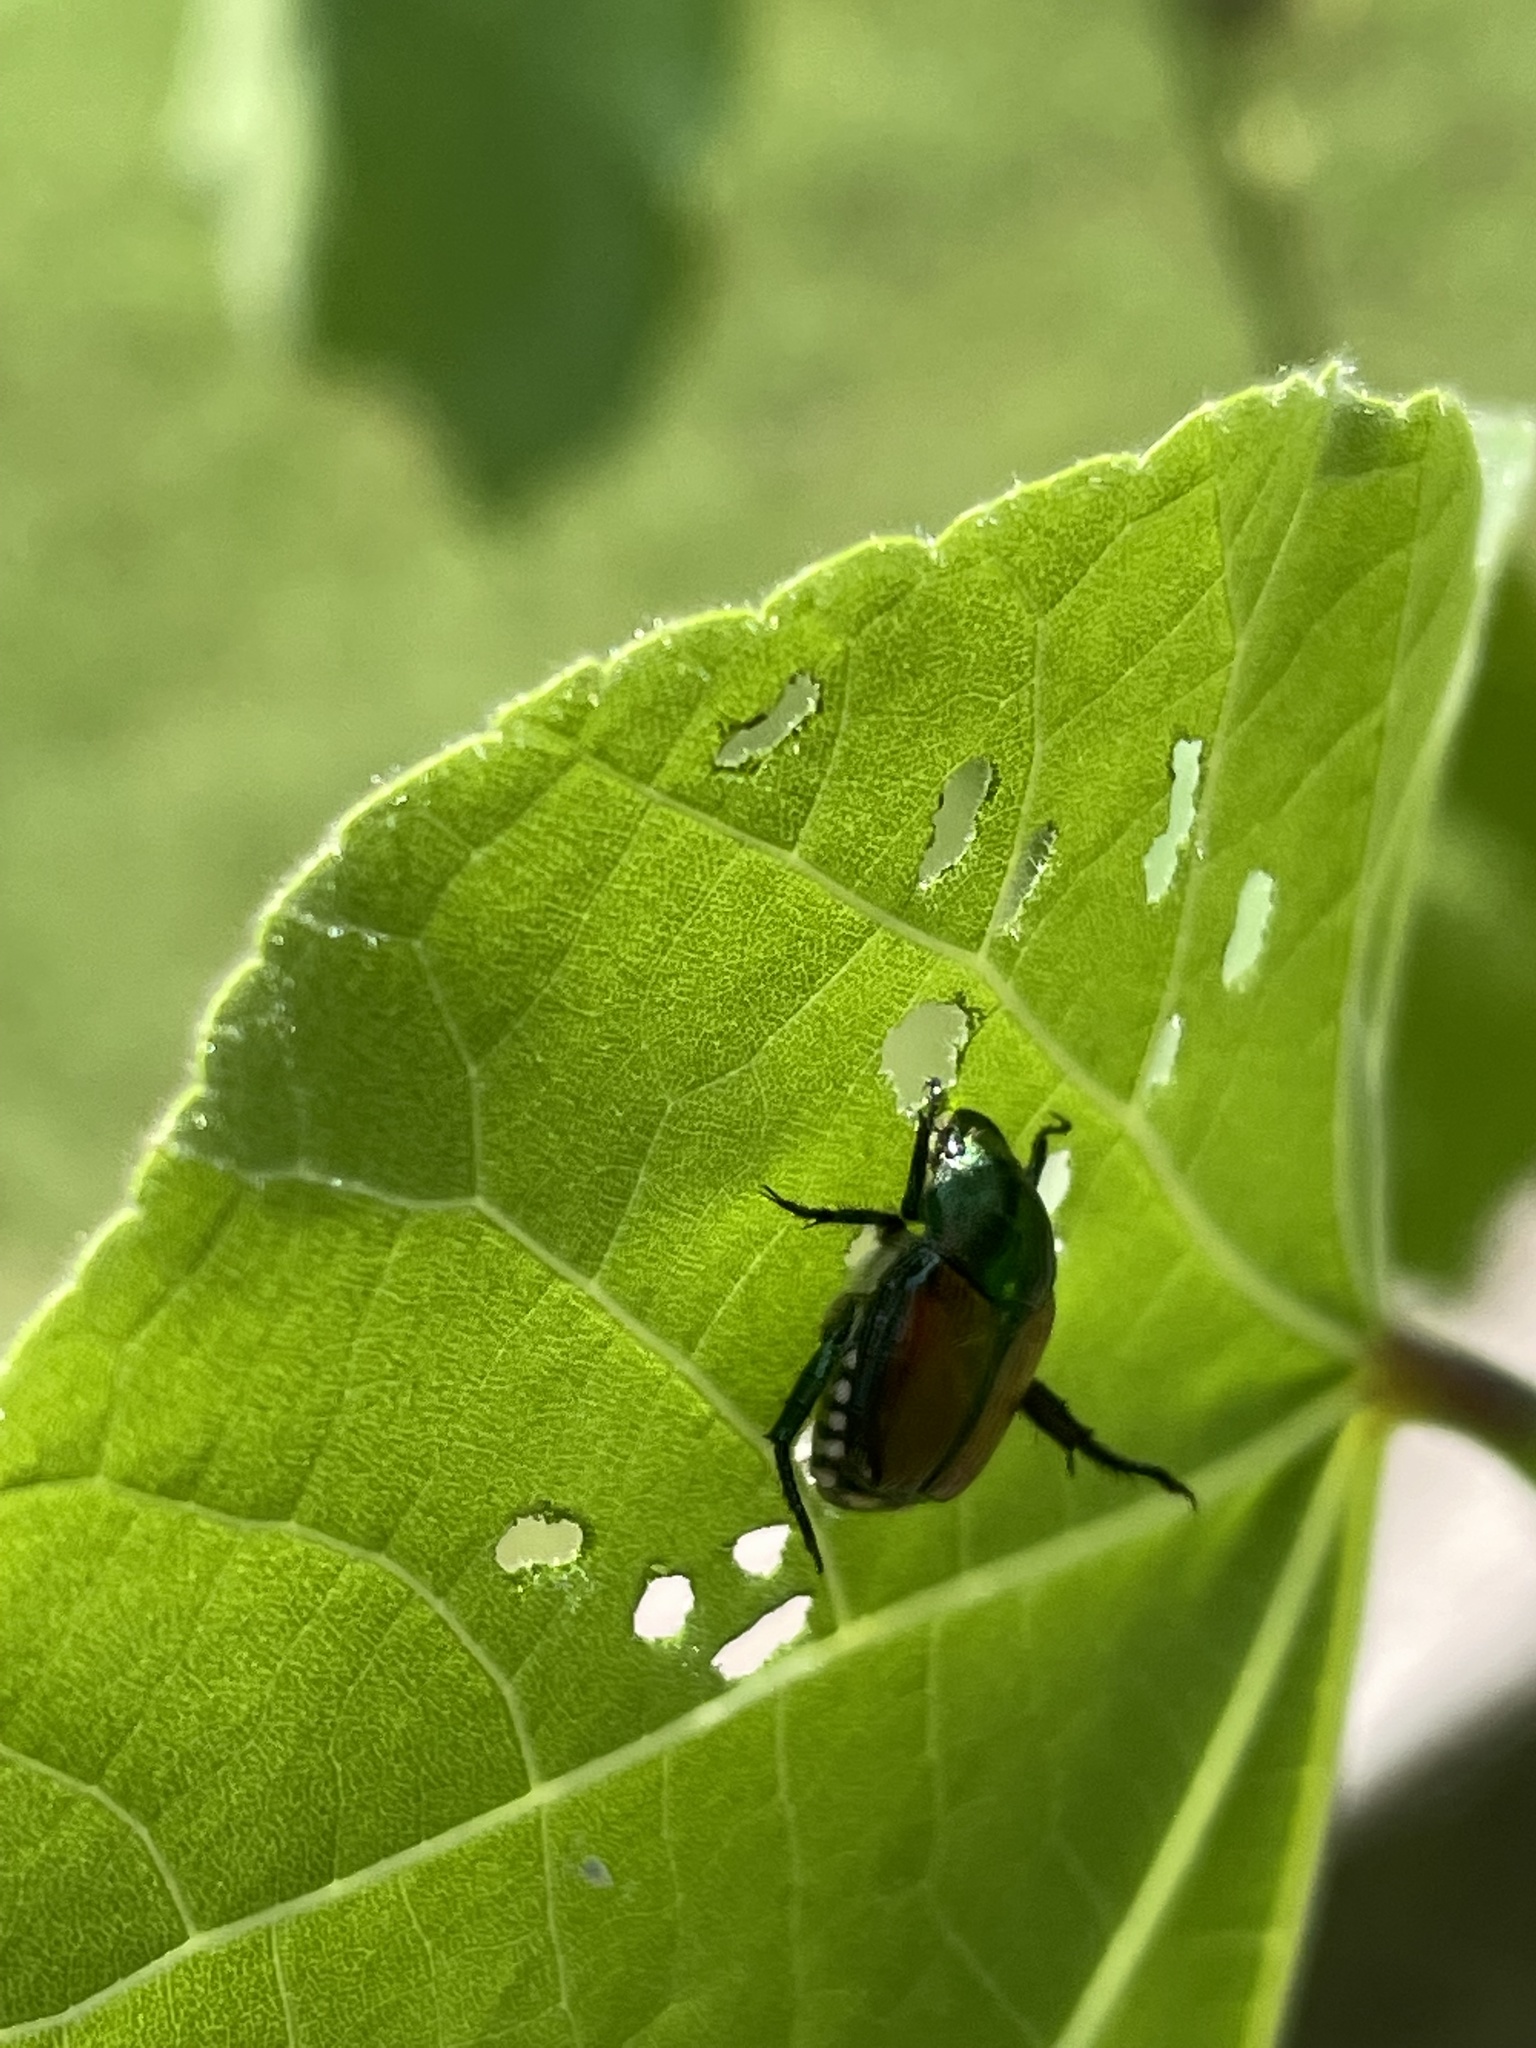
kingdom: Animalia
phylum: Arthropoda
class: Insecta
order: Coleoptera
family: Scarabaeidae
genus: Popillia
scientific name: Popillia japonica
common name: Japanese beetle
